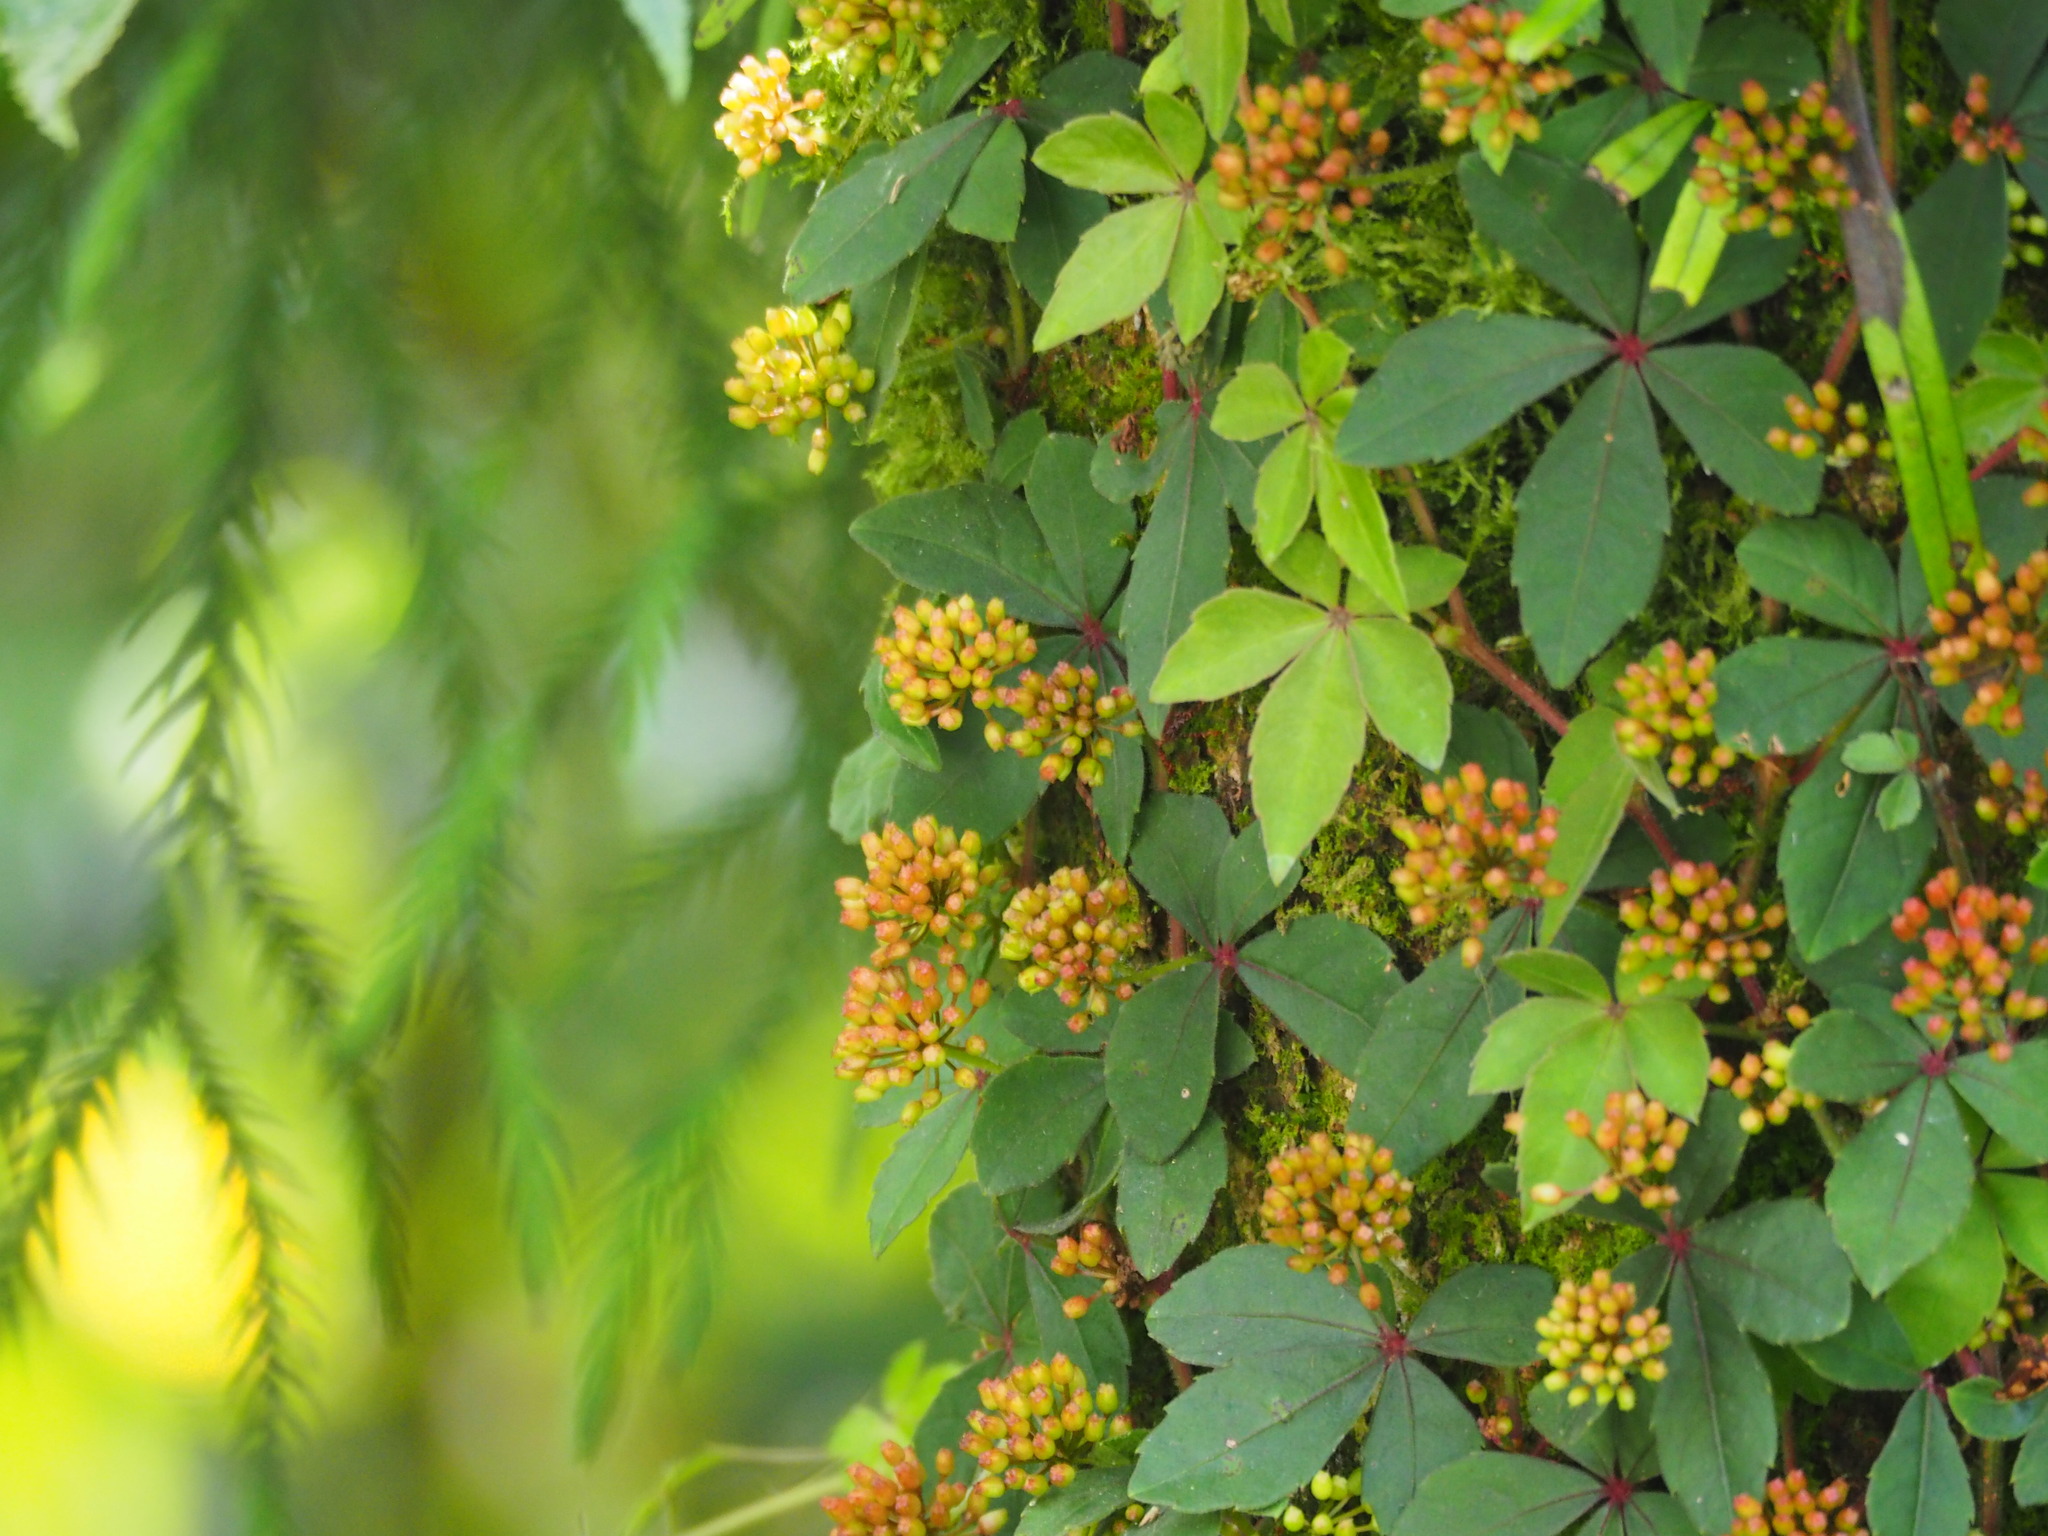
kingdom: Plantae
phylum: Tracheophyta
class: Magnoliopsida
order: Vitales
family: Vitaceae
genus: Tetrastigma
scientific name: Tetrastigma obtectum
